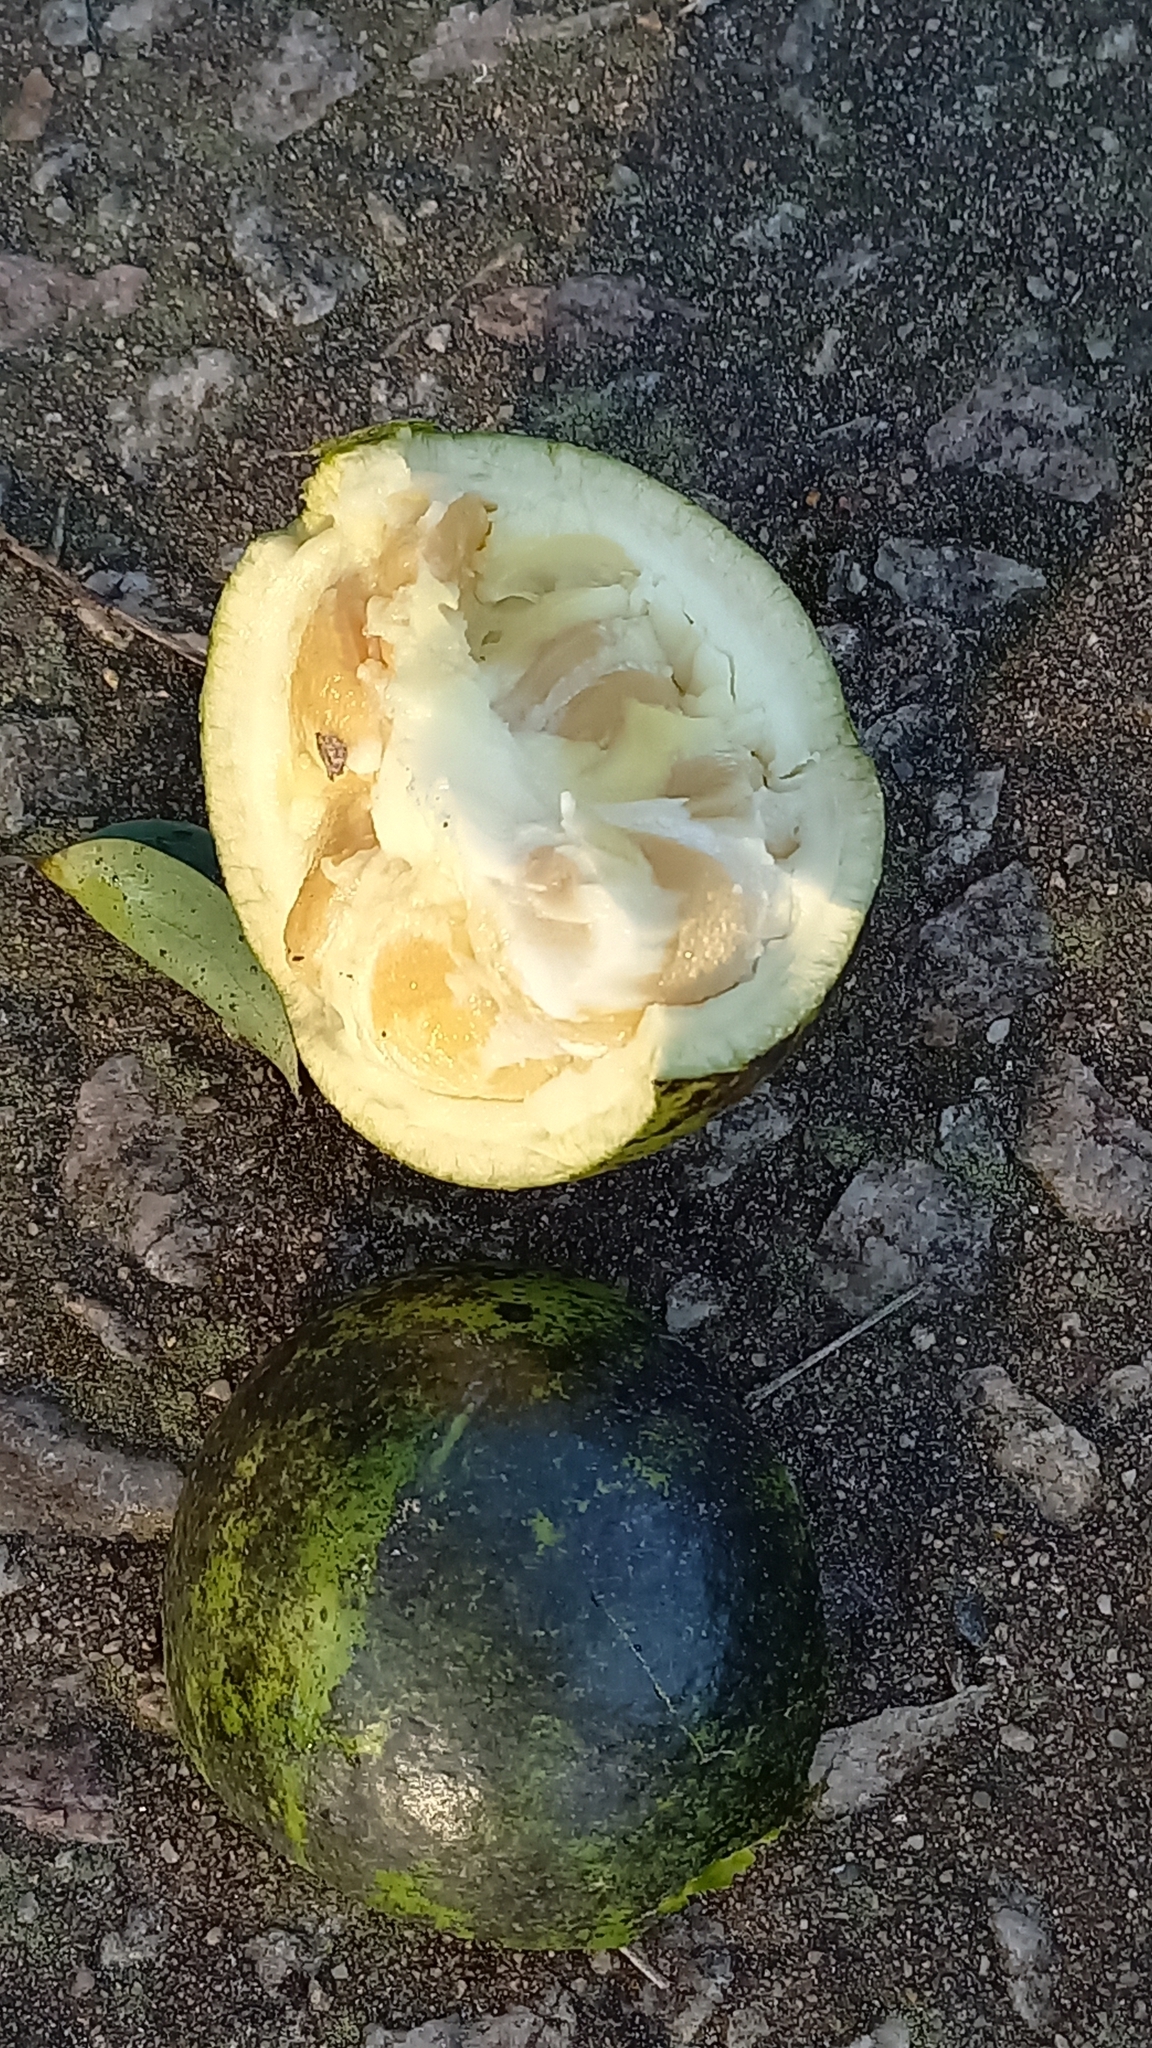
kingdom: Plantae
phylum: Tracheophyta
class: Magnoliopsida
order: Gentianales
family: Loganiaceae
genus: Strychnos
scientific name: Strychnos spinosa
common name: Natal orange
